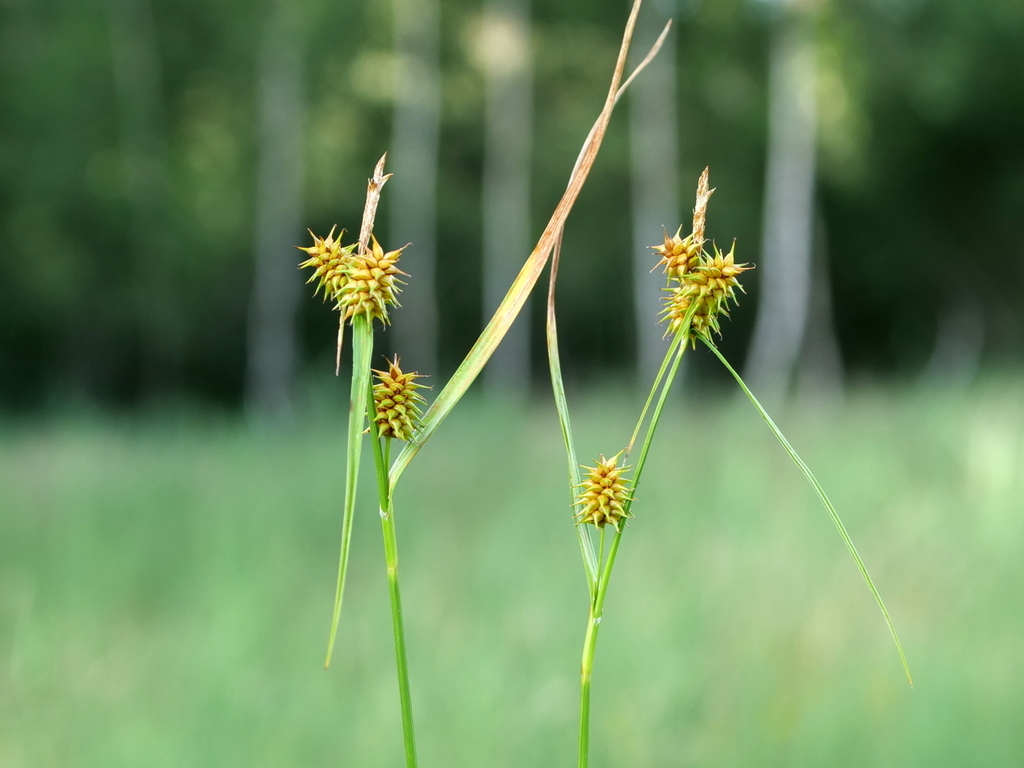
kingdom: Plantae
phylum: Tracheophyta
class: Liliopsida
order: Poales
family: Cyperaceae
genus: Carex
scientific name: Carex flava
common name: Large yellow-sedge
